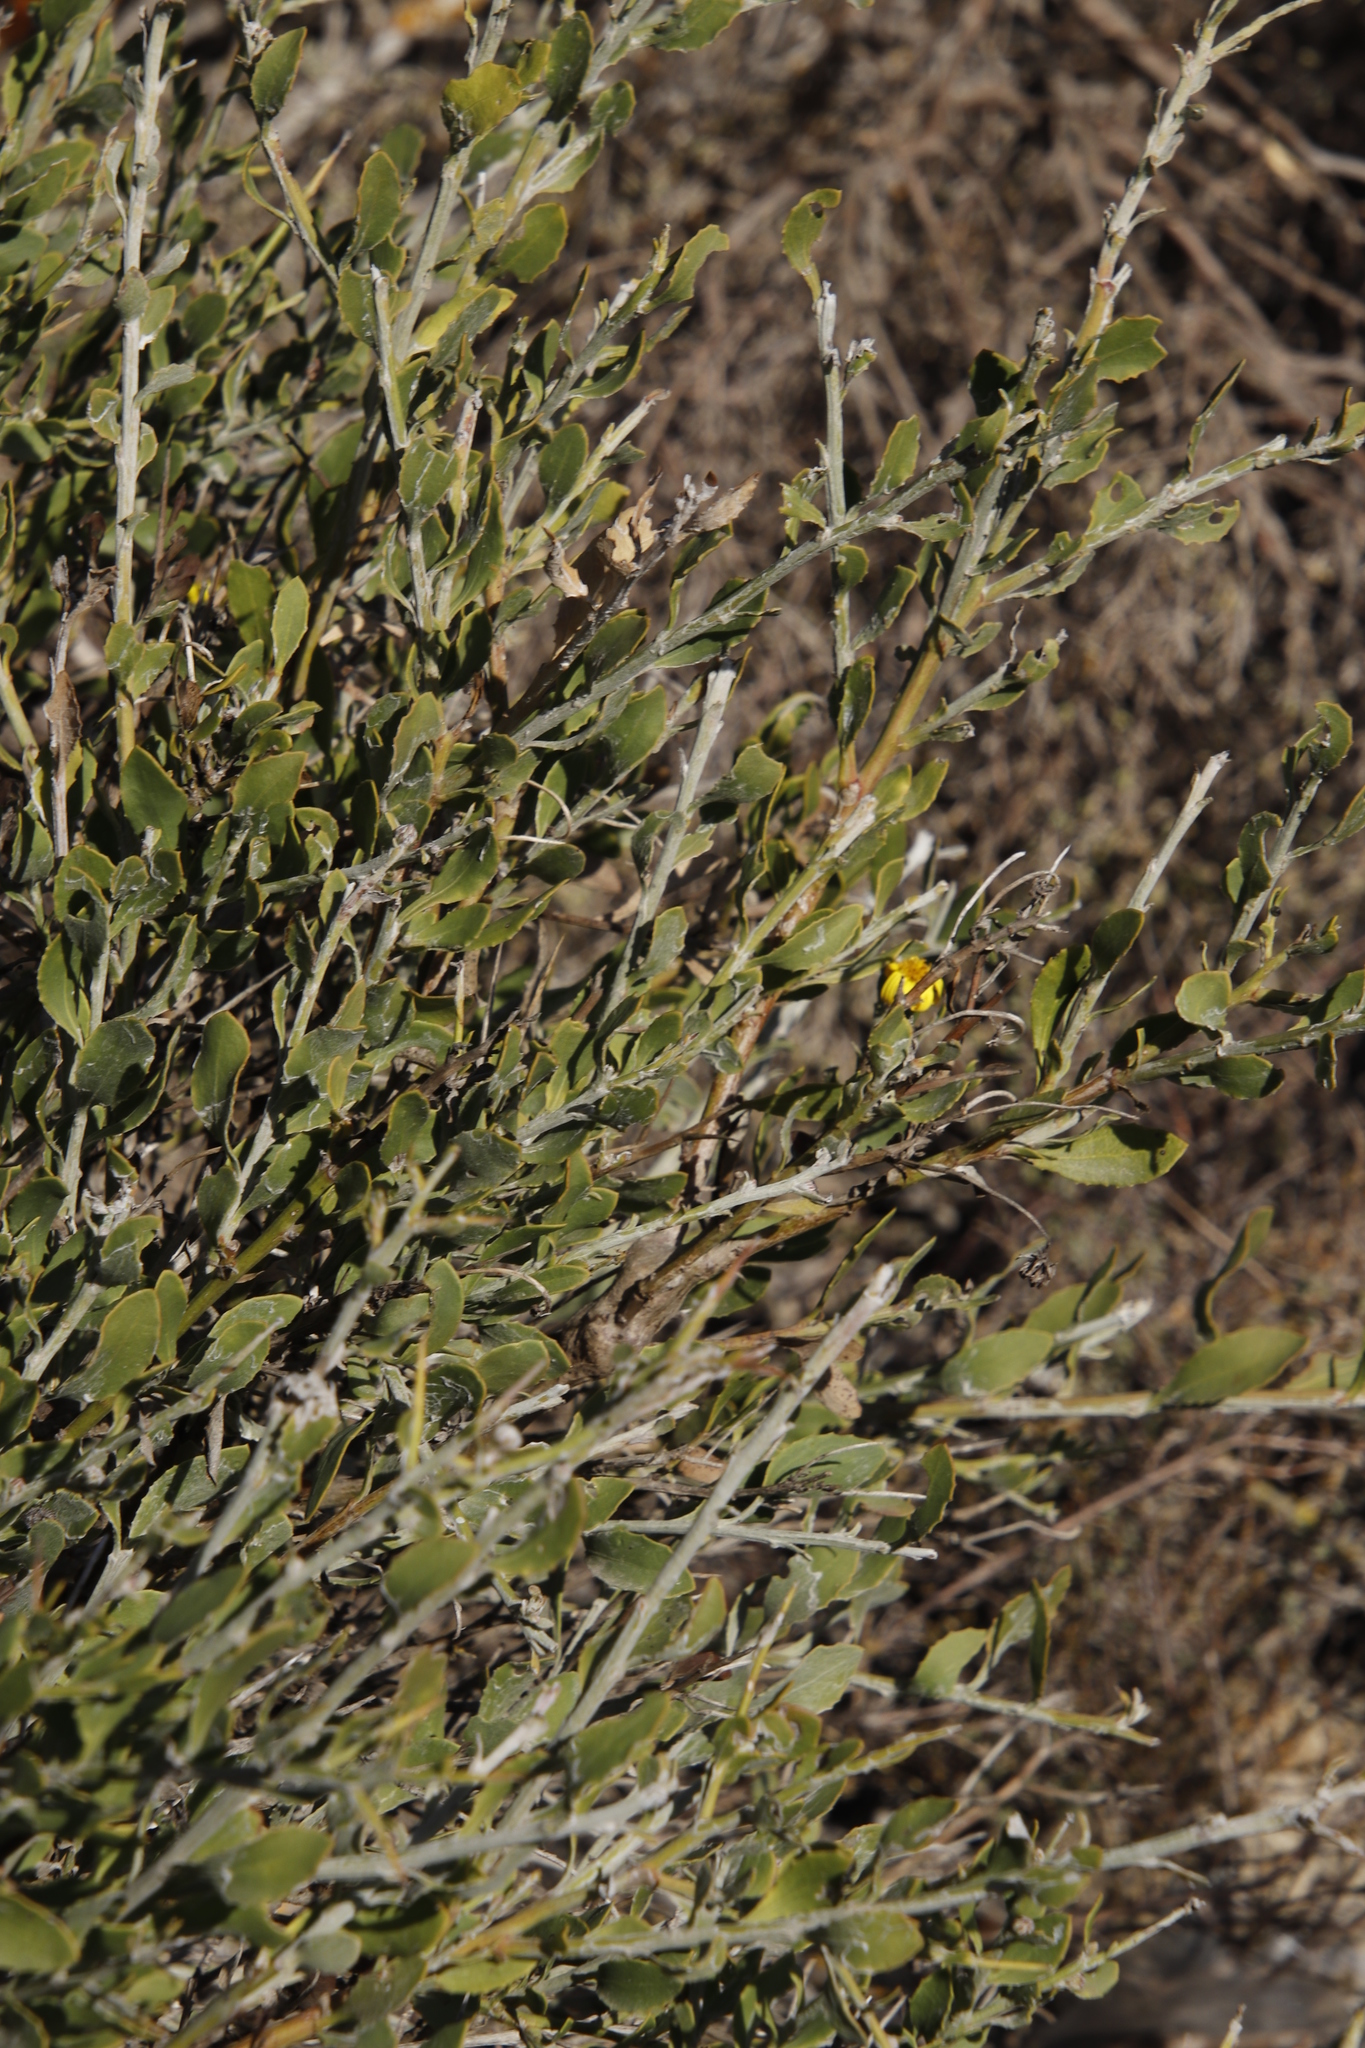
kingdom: Plantae
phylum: Tracheophyta
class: Magnoliopsida
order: Asterales
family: Asteraceae
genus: Osteospermum
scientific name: Osteospermum incanum
